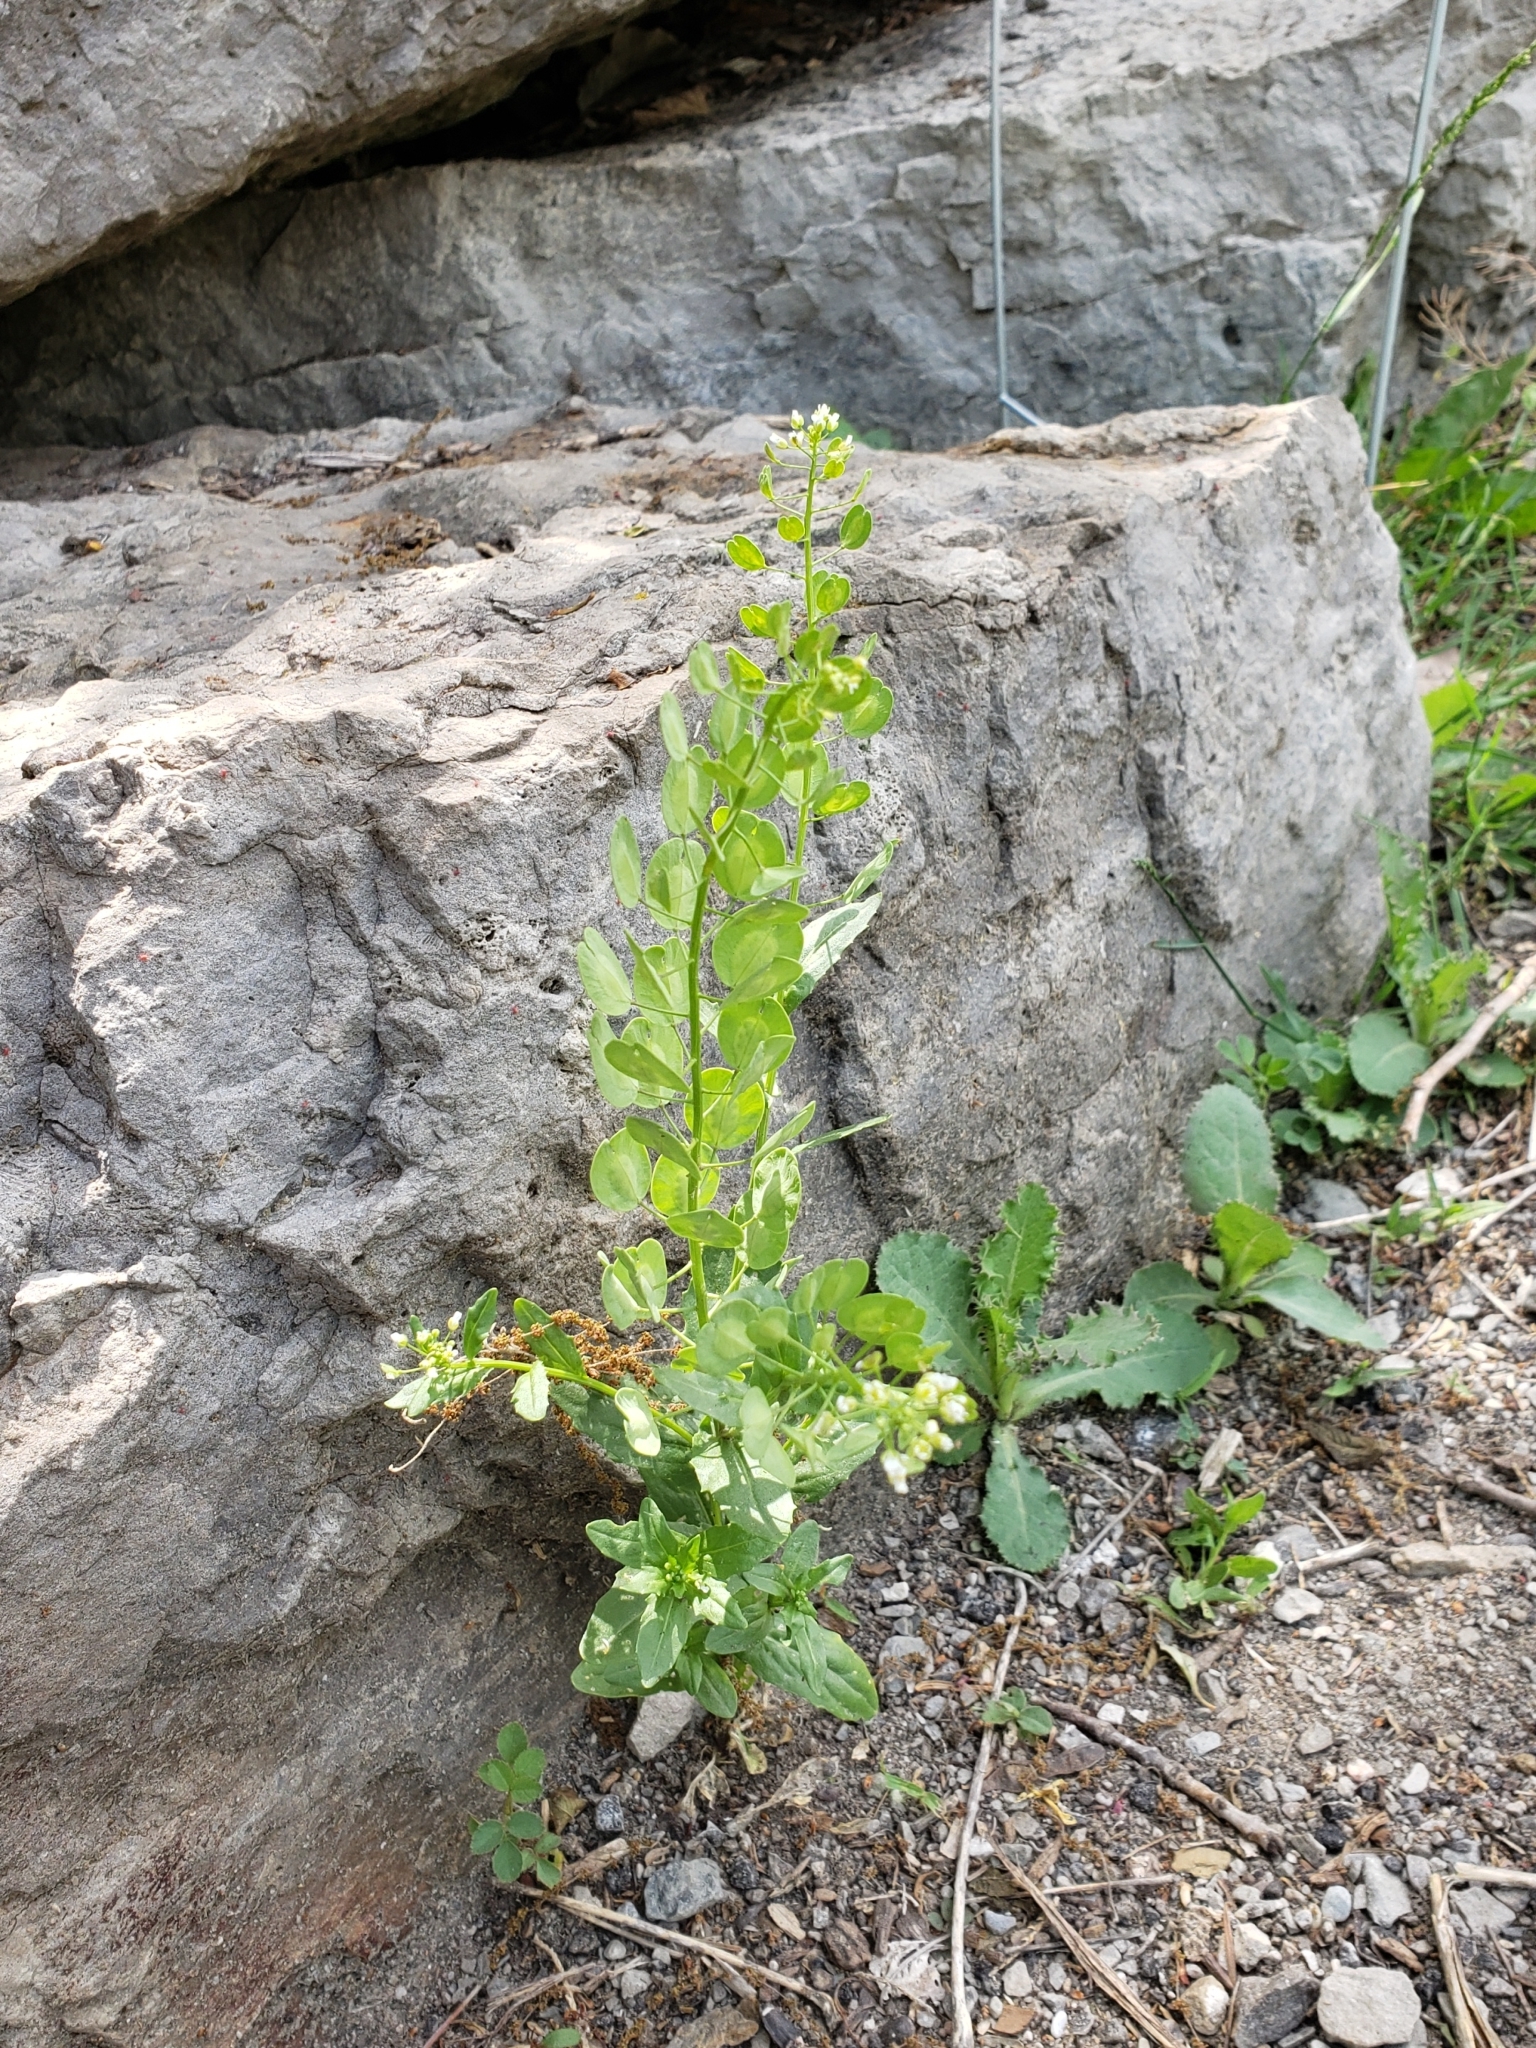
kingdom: Plantae
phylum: Tracheophyta
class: Magnoliopsida
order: Brassicales
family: Brassicaceae
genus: Thlaspi
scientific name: Thlaspi arvense
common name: Field pennycress
